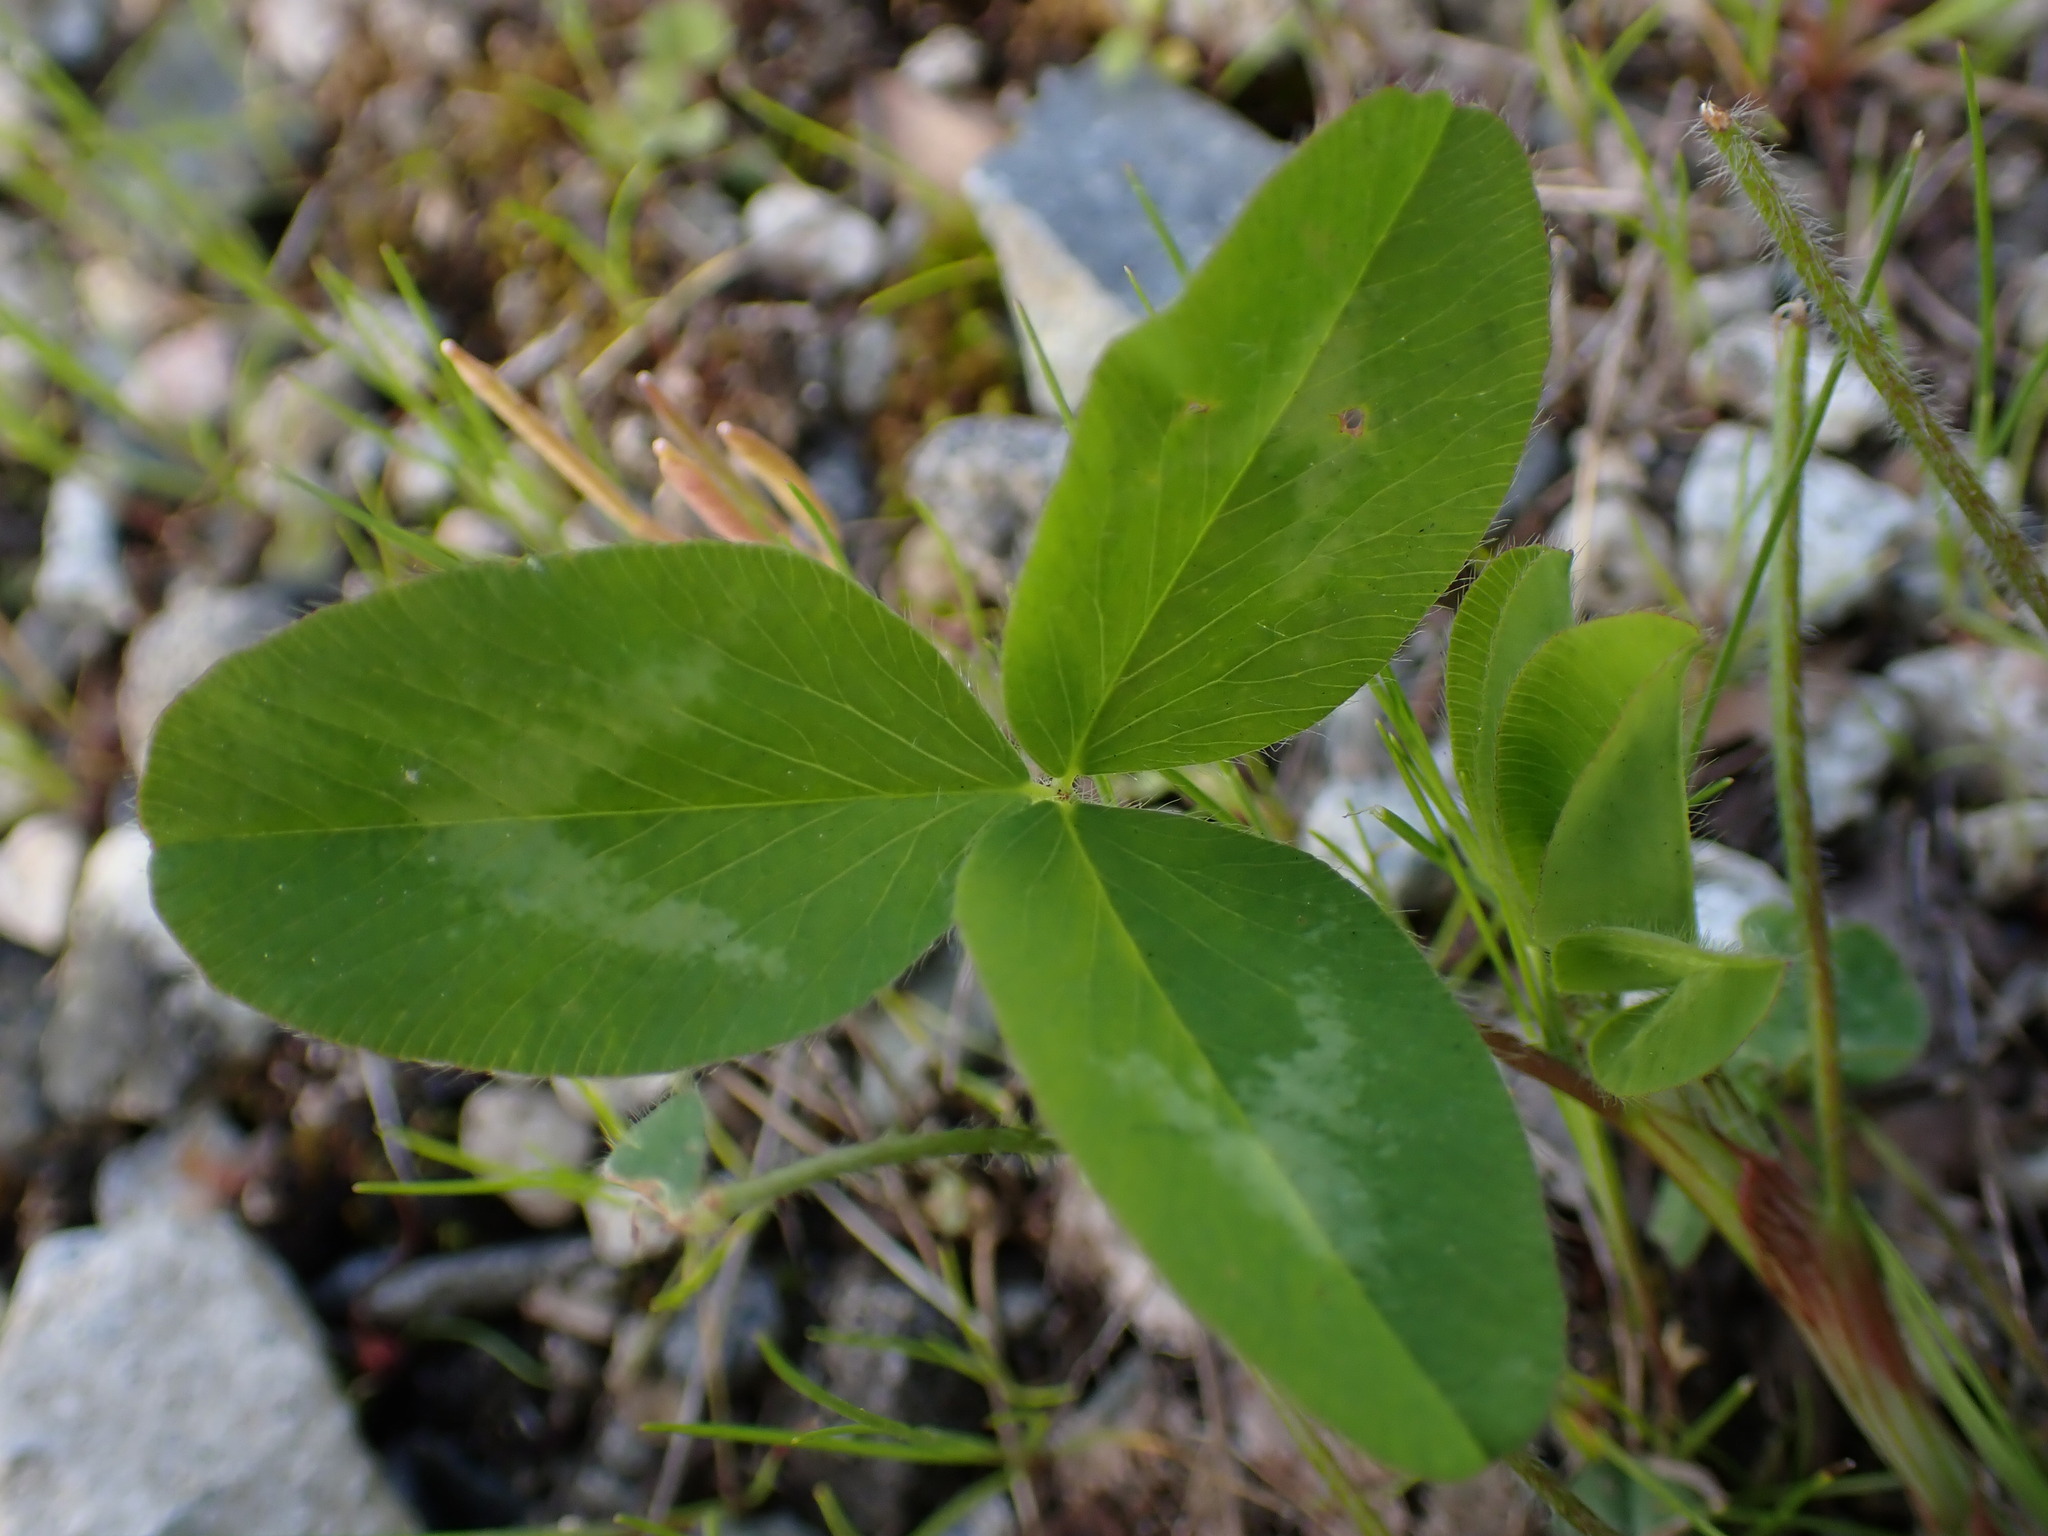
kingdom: Plantae
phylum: Tracheophyta
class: Magnoliopsida
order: Fabales
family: Fabaceae
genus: Trifolium
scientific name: Trifolium pratense
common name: Red clover
